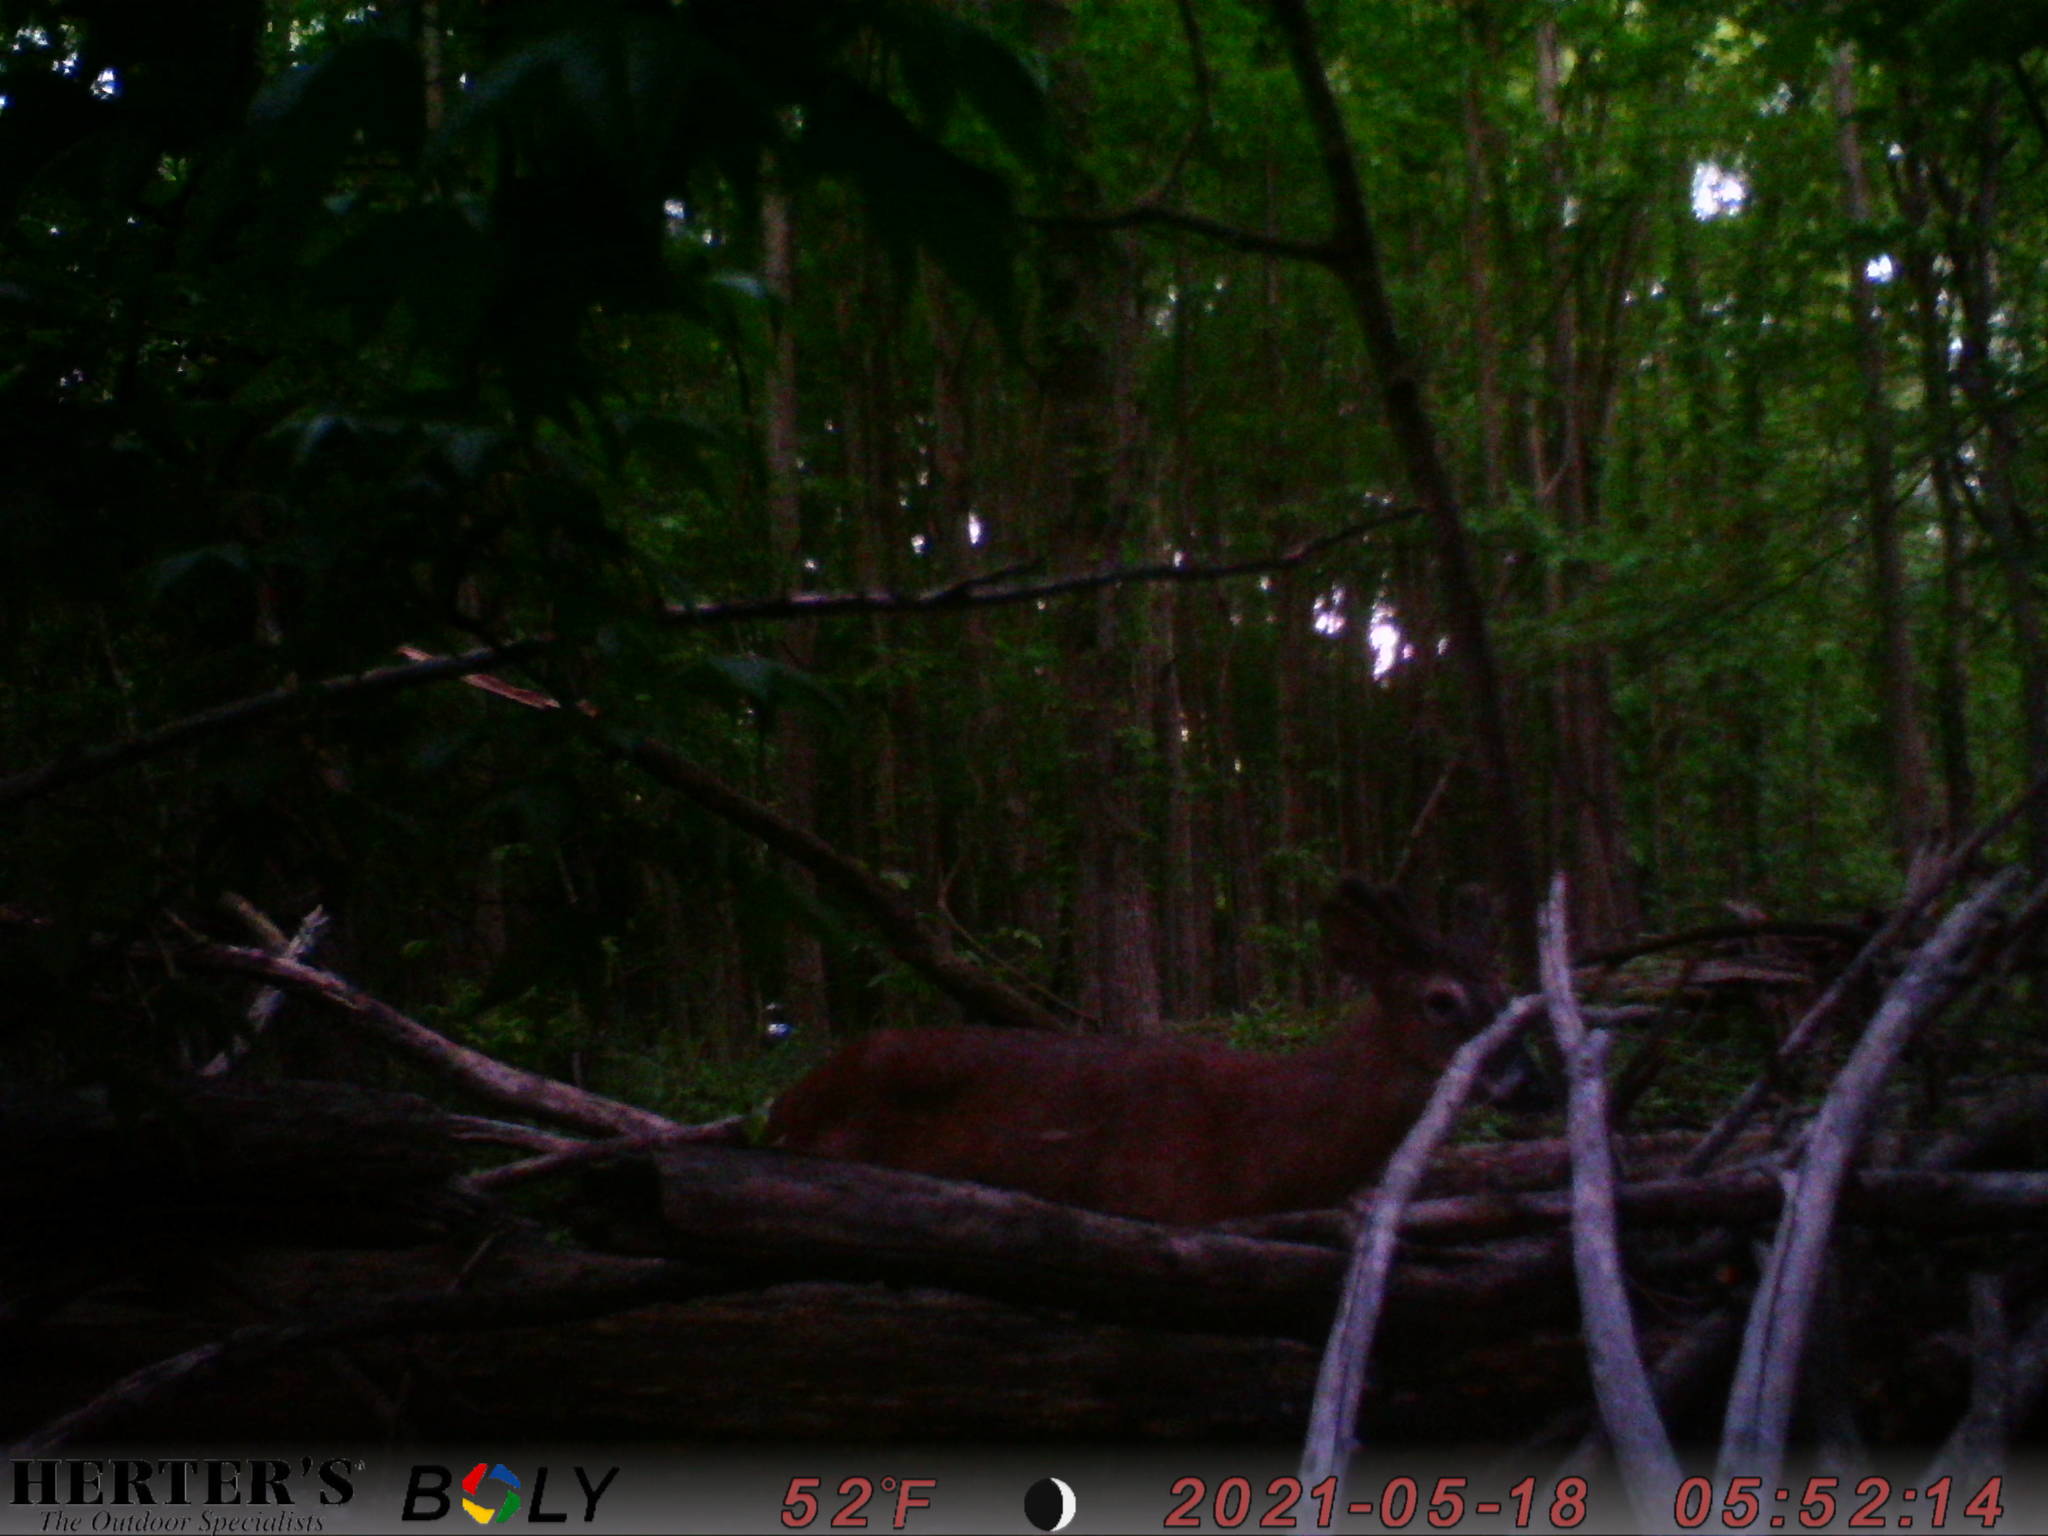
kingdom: Animalia
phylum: Chordata
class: Mammalia
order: Artiodactyla
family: Cervidae
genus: Odocoileus
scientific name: Odocoileus virginianus
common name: White-tailed deer
